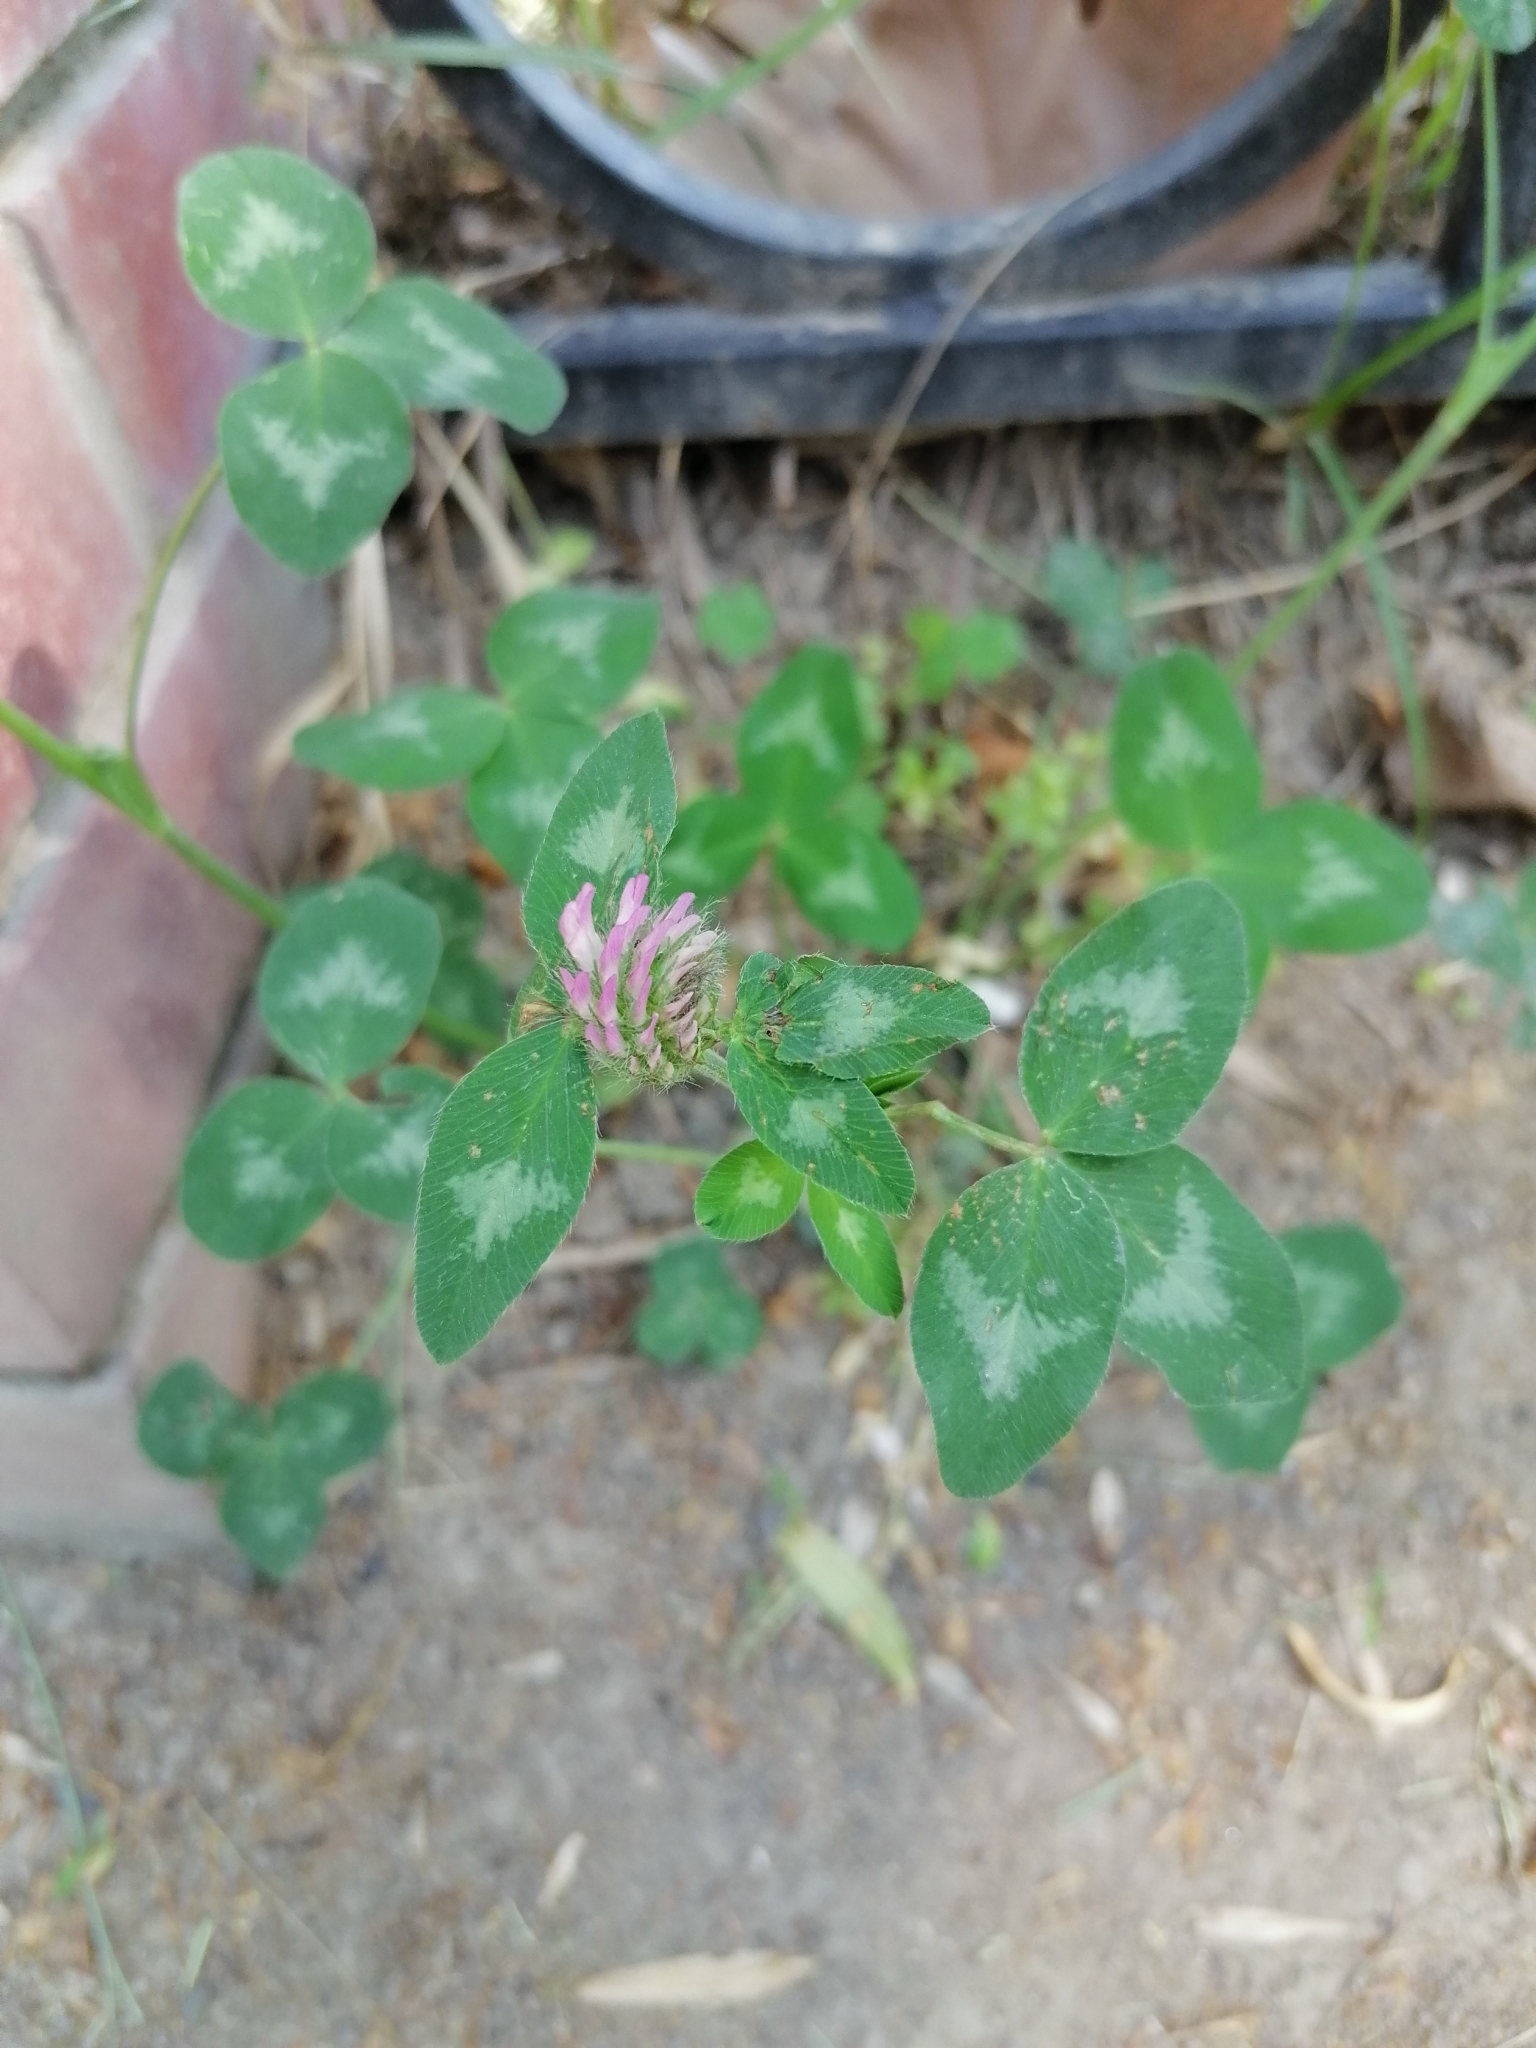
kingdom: Plantae
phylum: Tracheophyta
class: Magnoliopsida
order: Fabales
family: Fabaceae
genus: Trifolium
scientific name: Trifolium pratense
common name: Red clover
